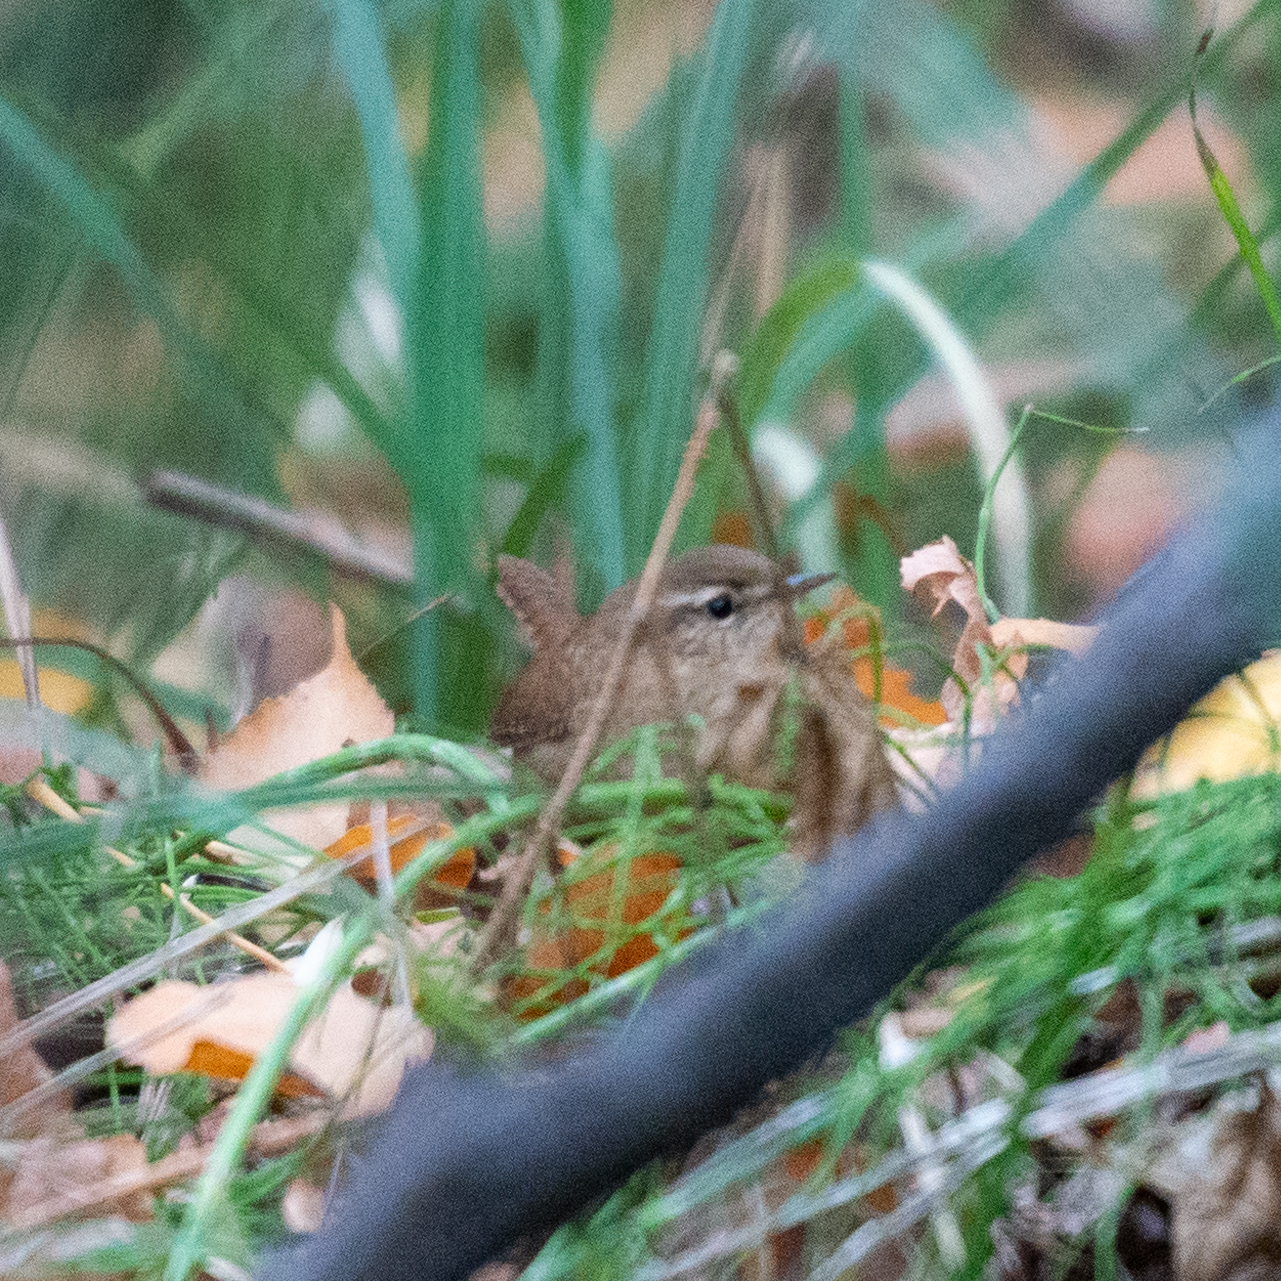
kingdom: Animalia
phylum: Chordata
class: Aves
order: Passeriformes
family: Troglodytidae
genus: Troglodytes
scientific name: Troglodytes troglodytes
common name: Eurasian wren
